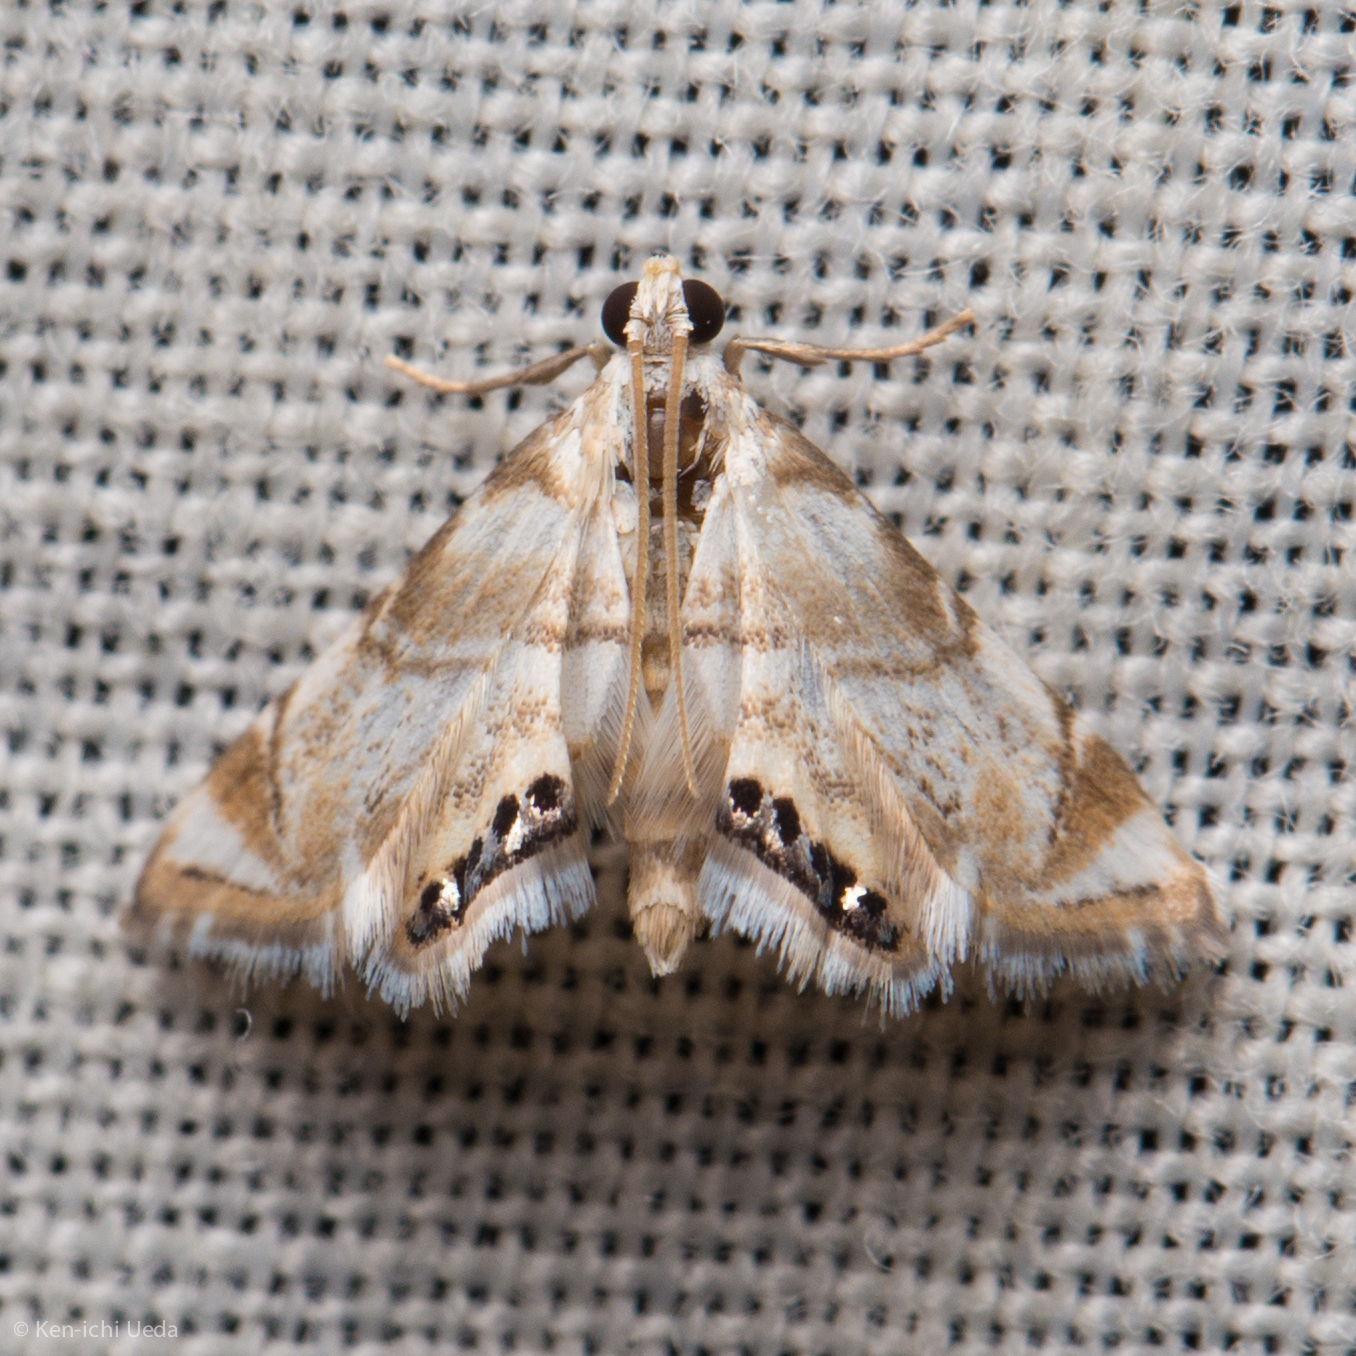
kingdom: Animalia
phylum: Arthropoda
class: Insecta
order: Lepidoptera
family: Crambidae
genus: Eoparargyractis
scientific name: Eoparargyractis plevie
